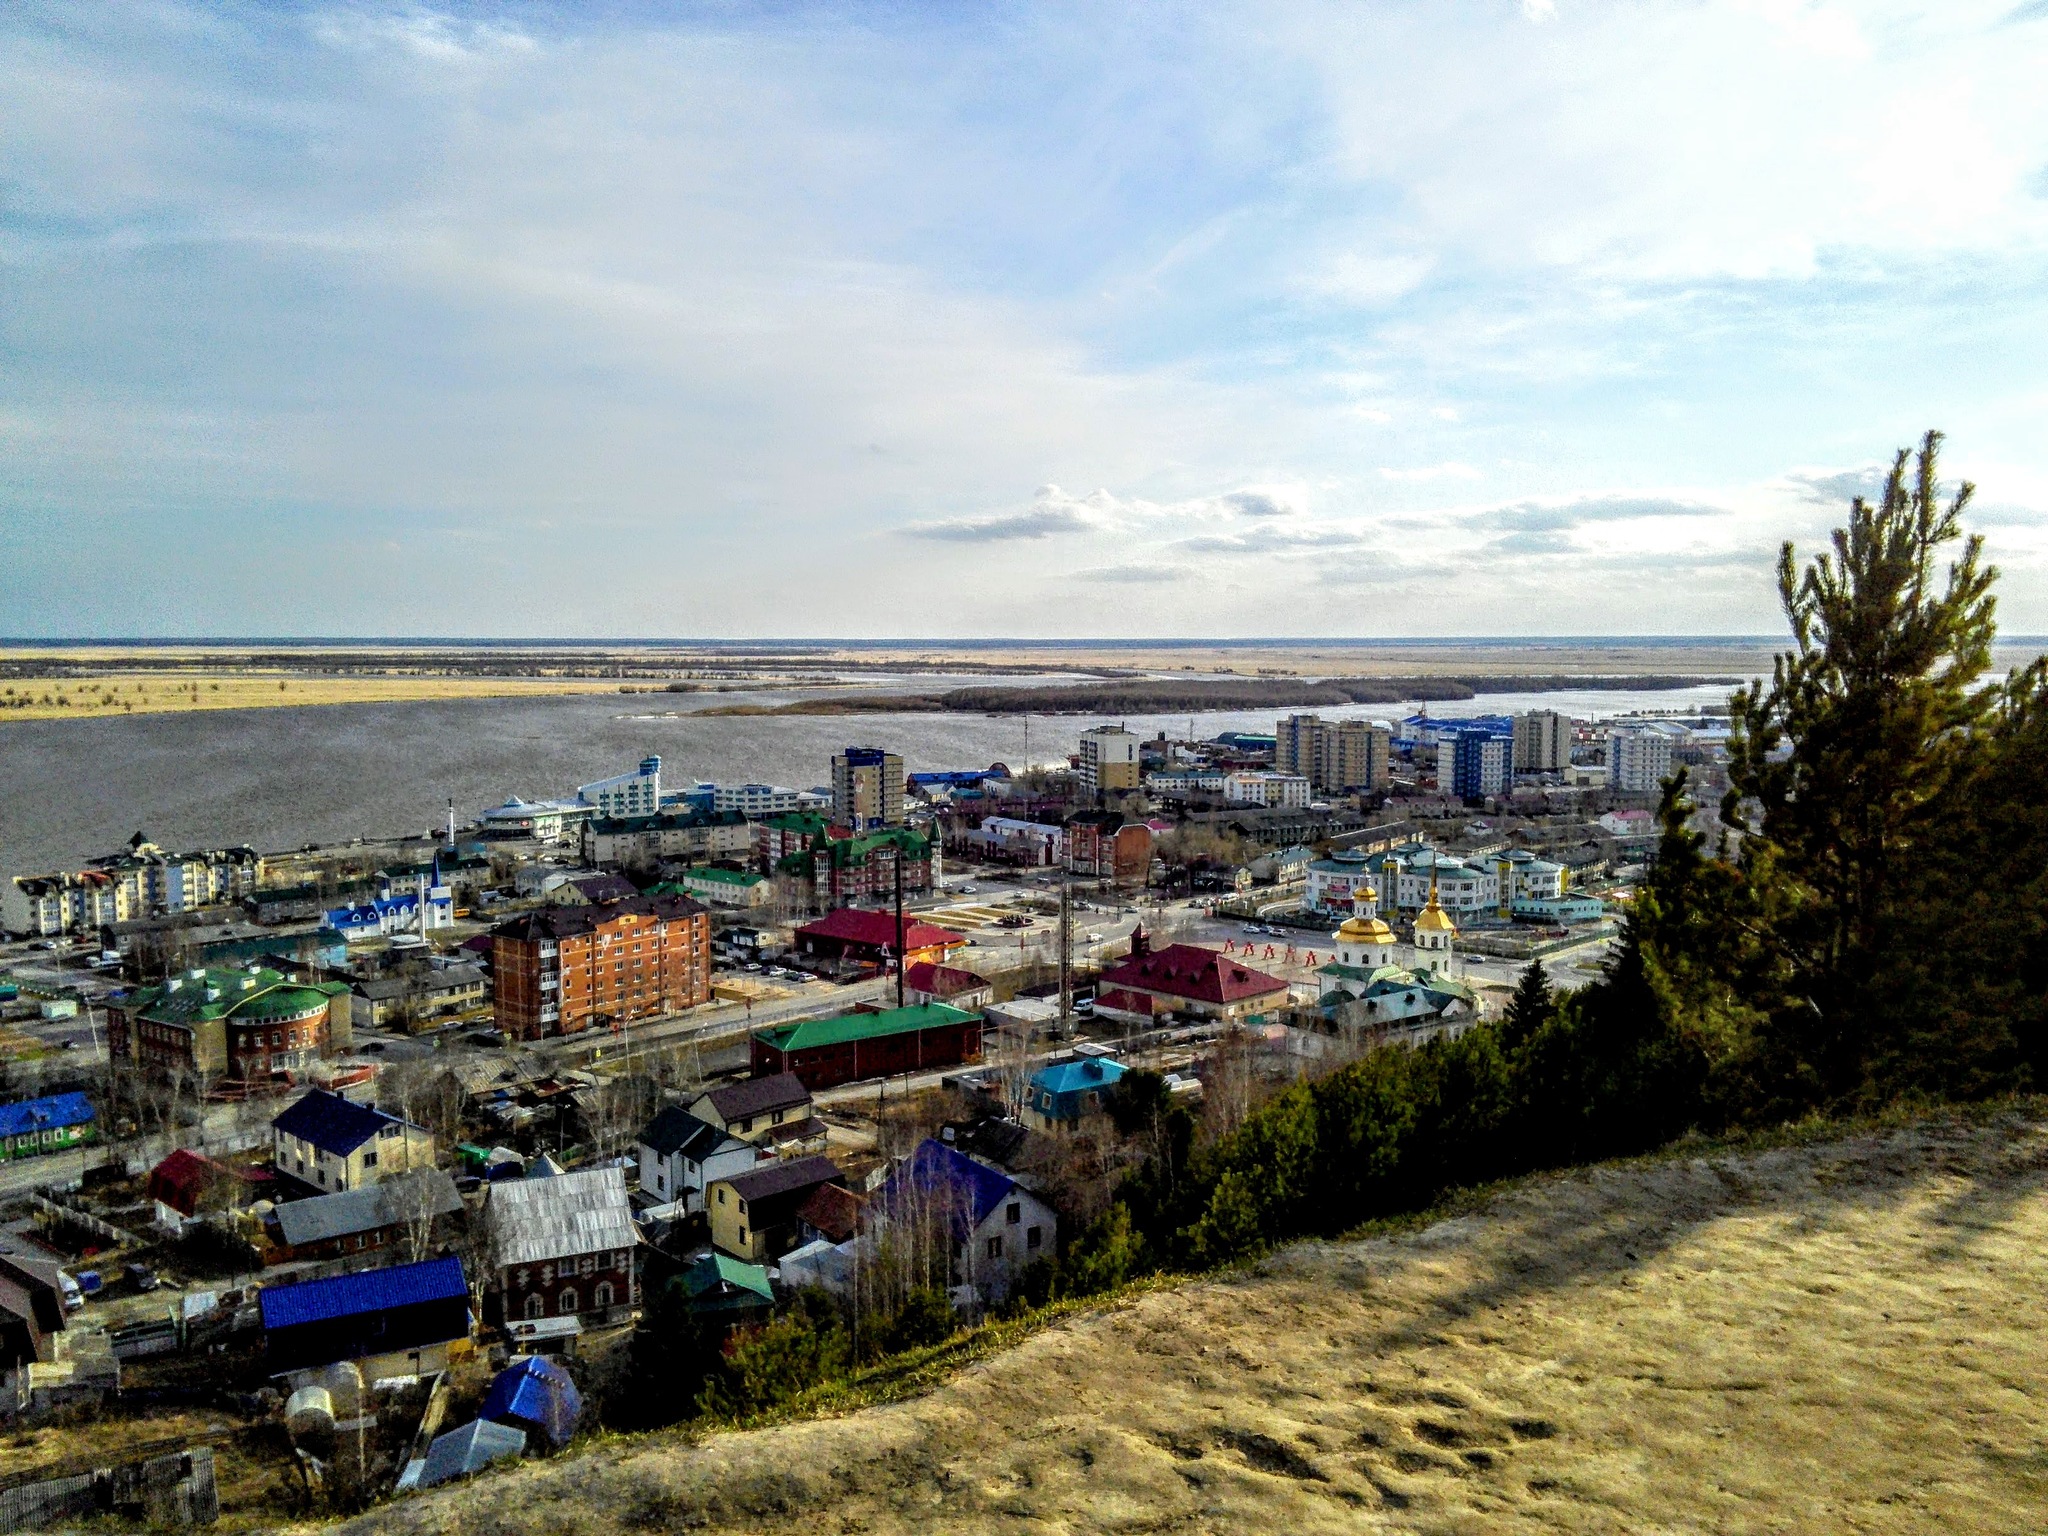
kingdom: Plantae
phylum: Tracheophyta
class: Pinopsida
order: Pinales
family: Pinaceae
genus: Pinus
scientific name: Pinus sylvestris
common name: Scots pine
